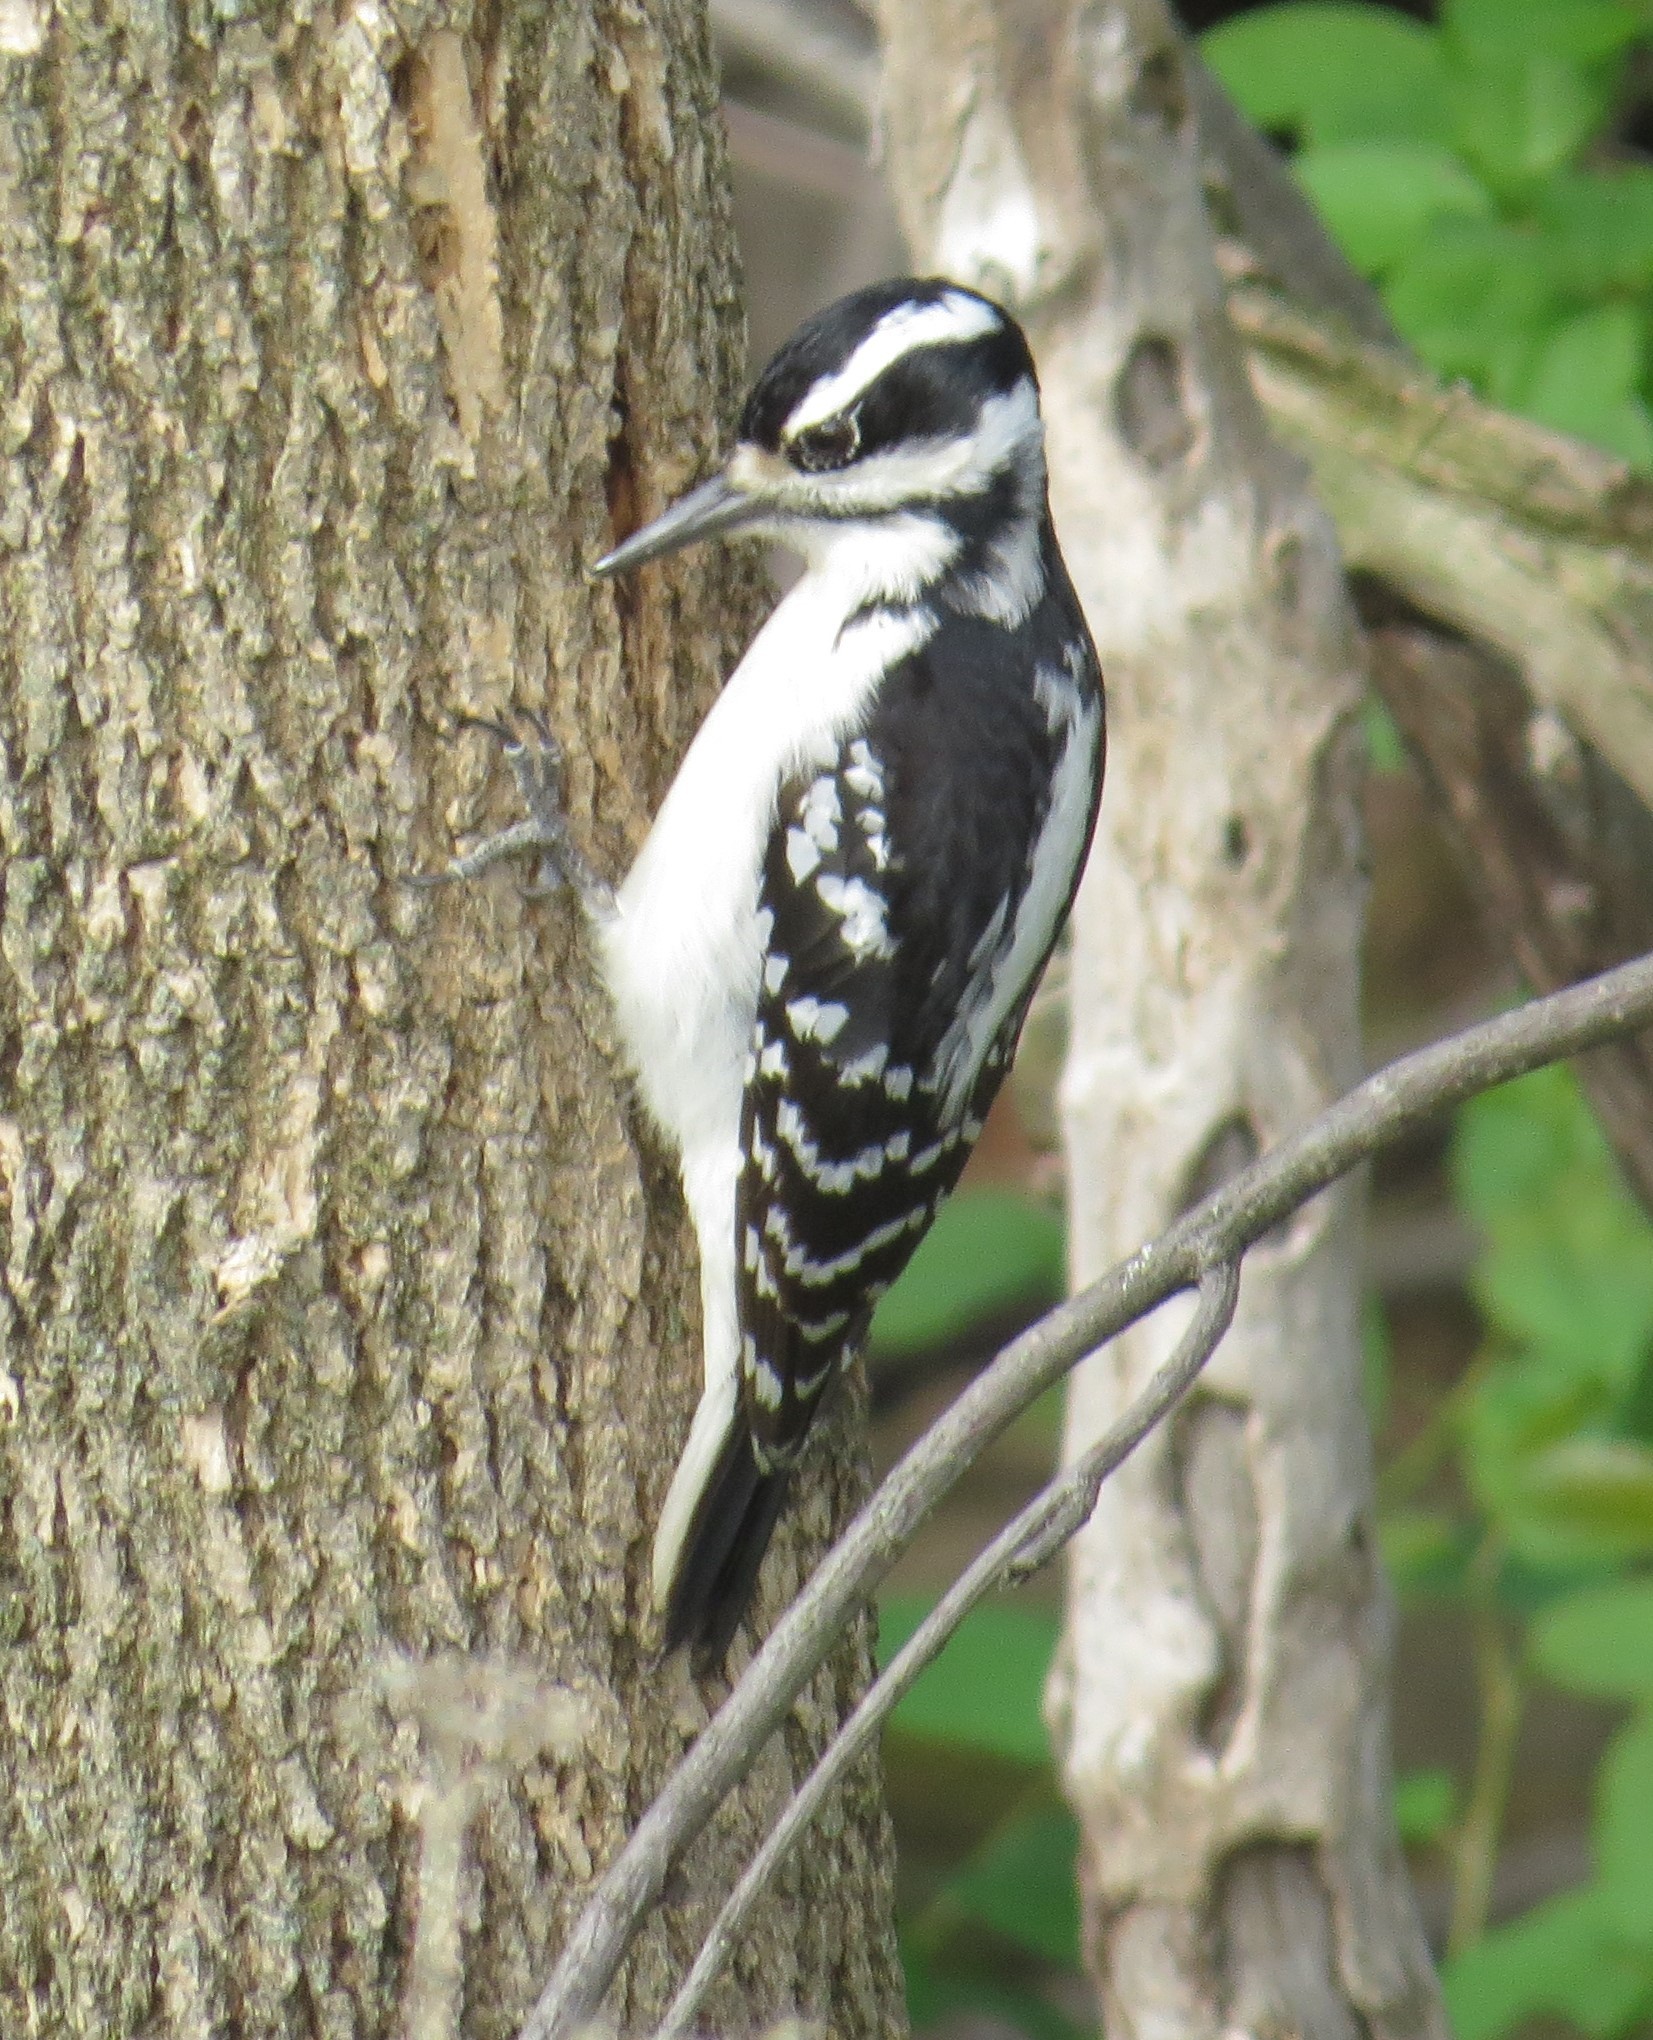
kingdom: Animalia
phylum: Chordata
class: Aves
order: Piciformes
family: Picidae
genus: Leuconotopicus
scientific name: Leuconotopicus villosus
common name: Hairy woodpecker
